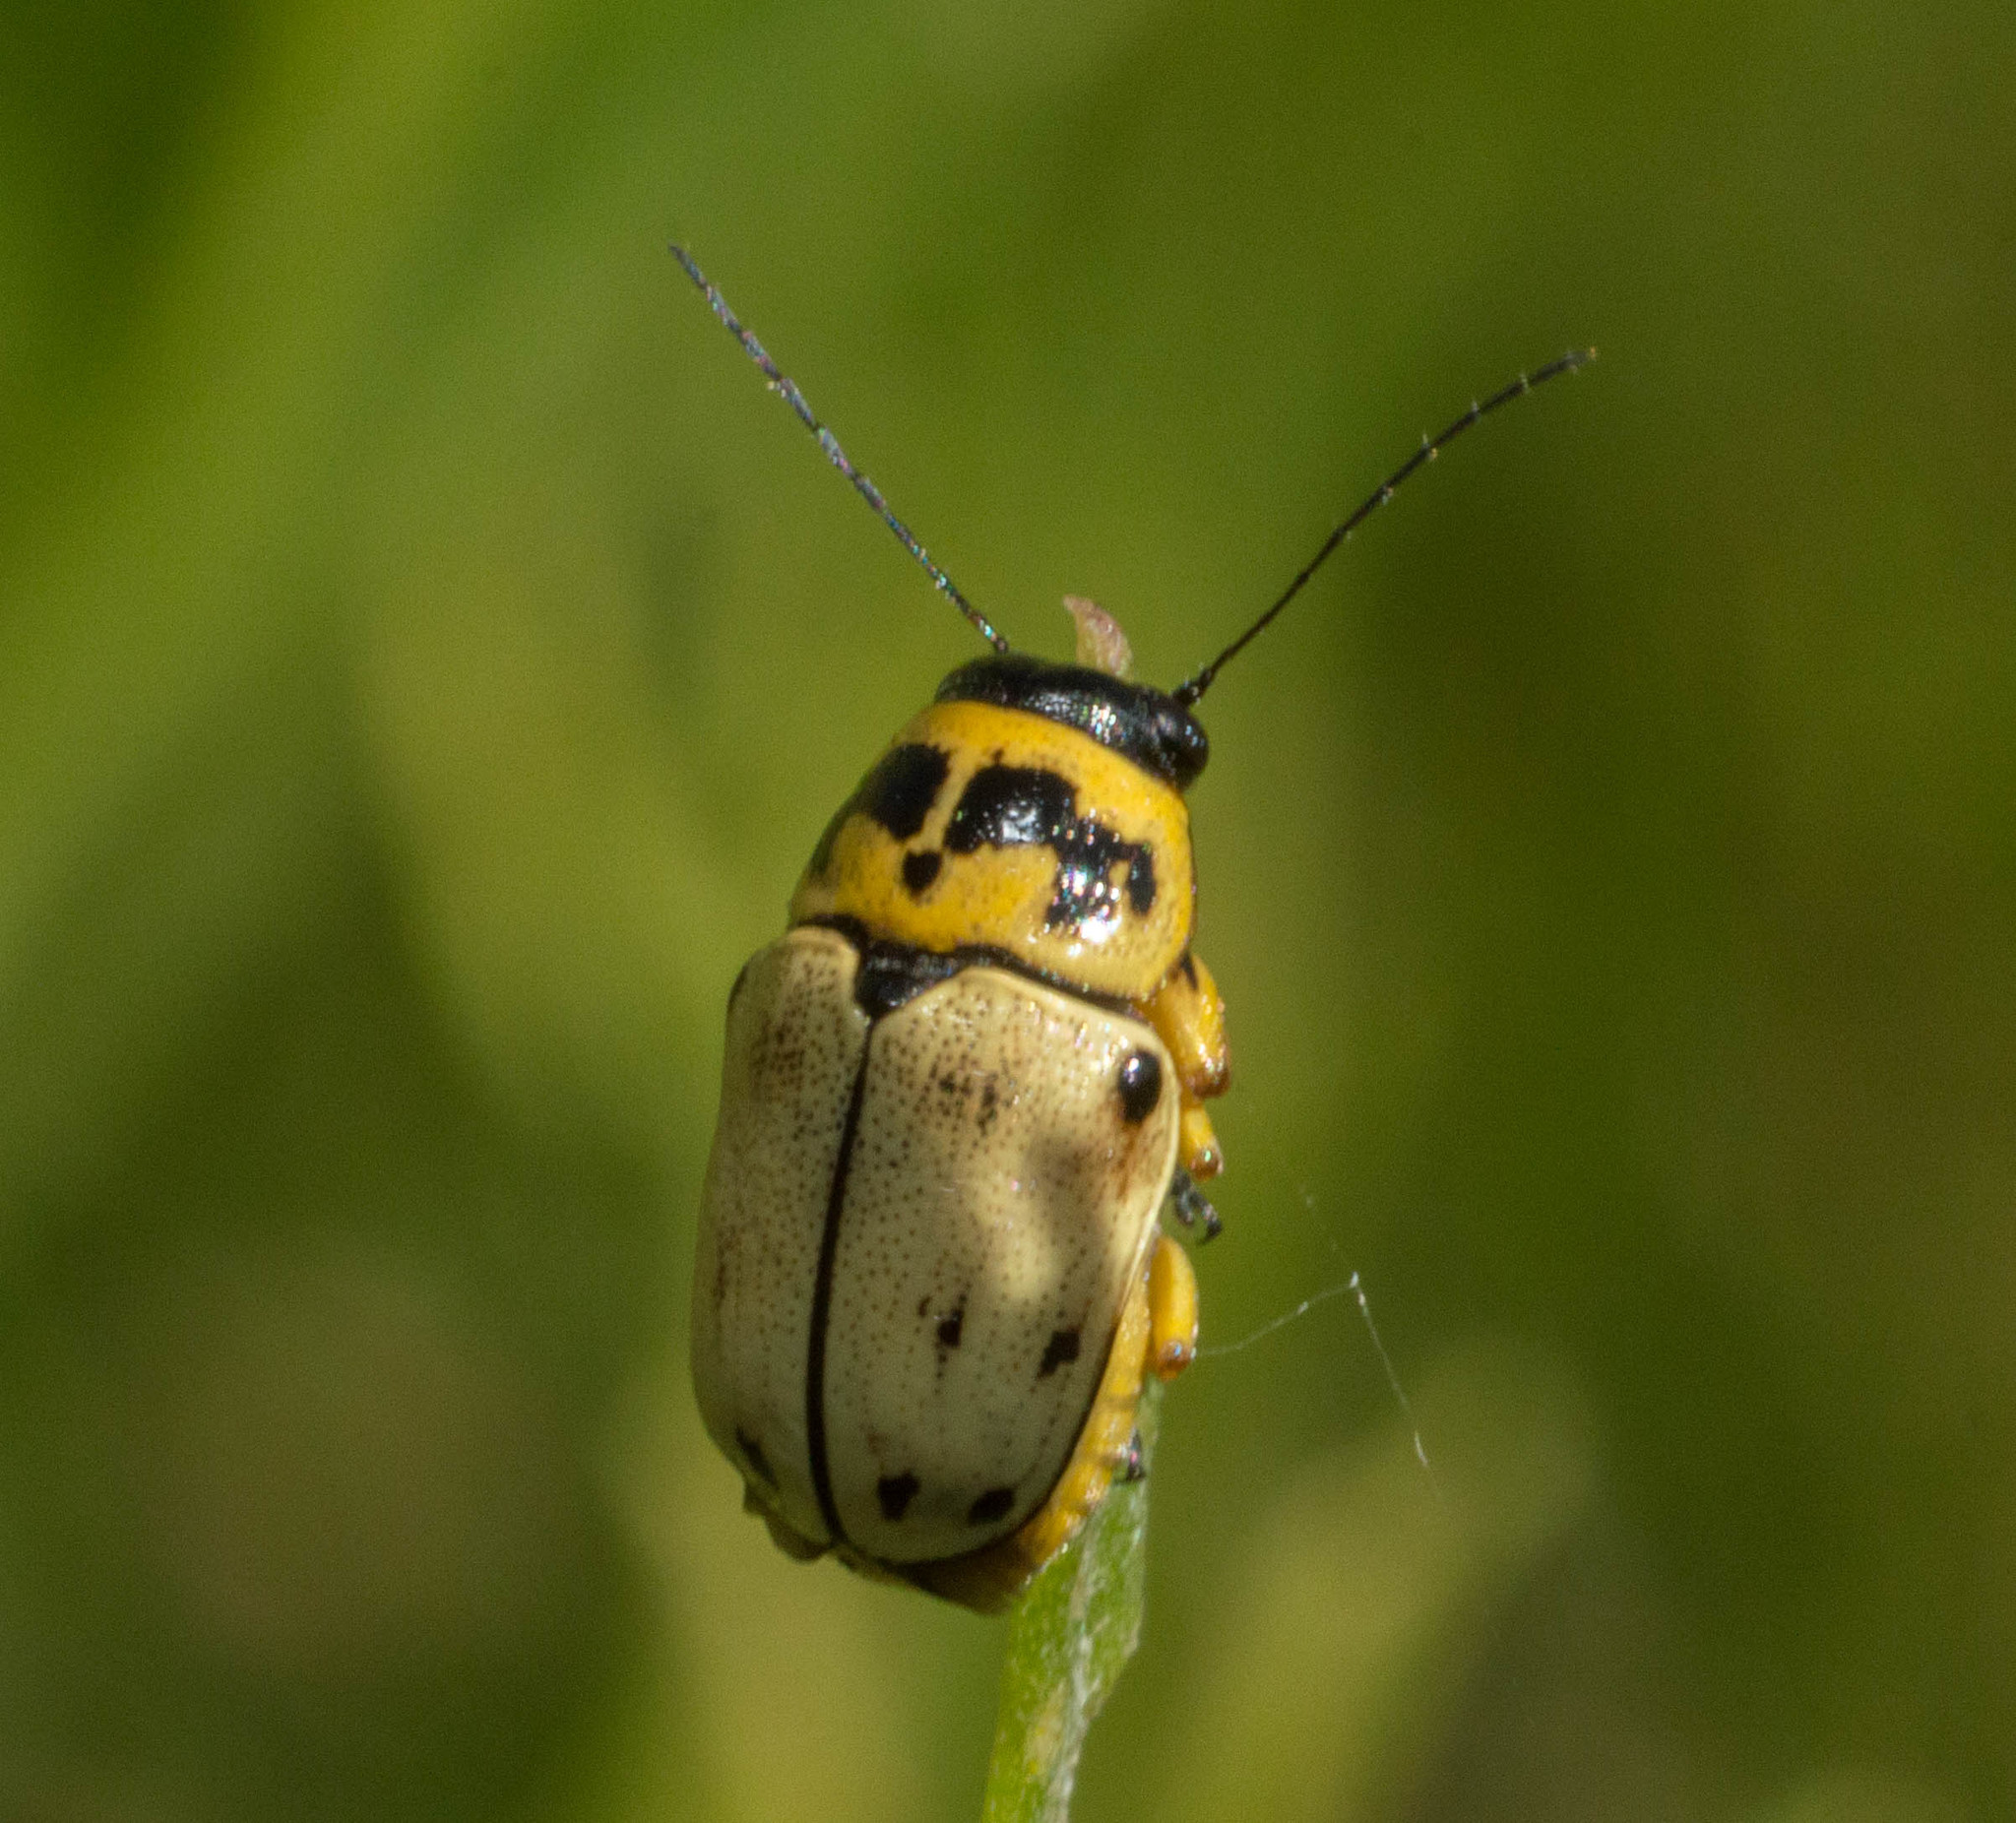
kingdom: Animalia
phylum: Arthropoda
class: Insecta
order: Coleoptera
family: Chrysomelidae
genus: Metallactus
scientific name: Metallactus pollens
